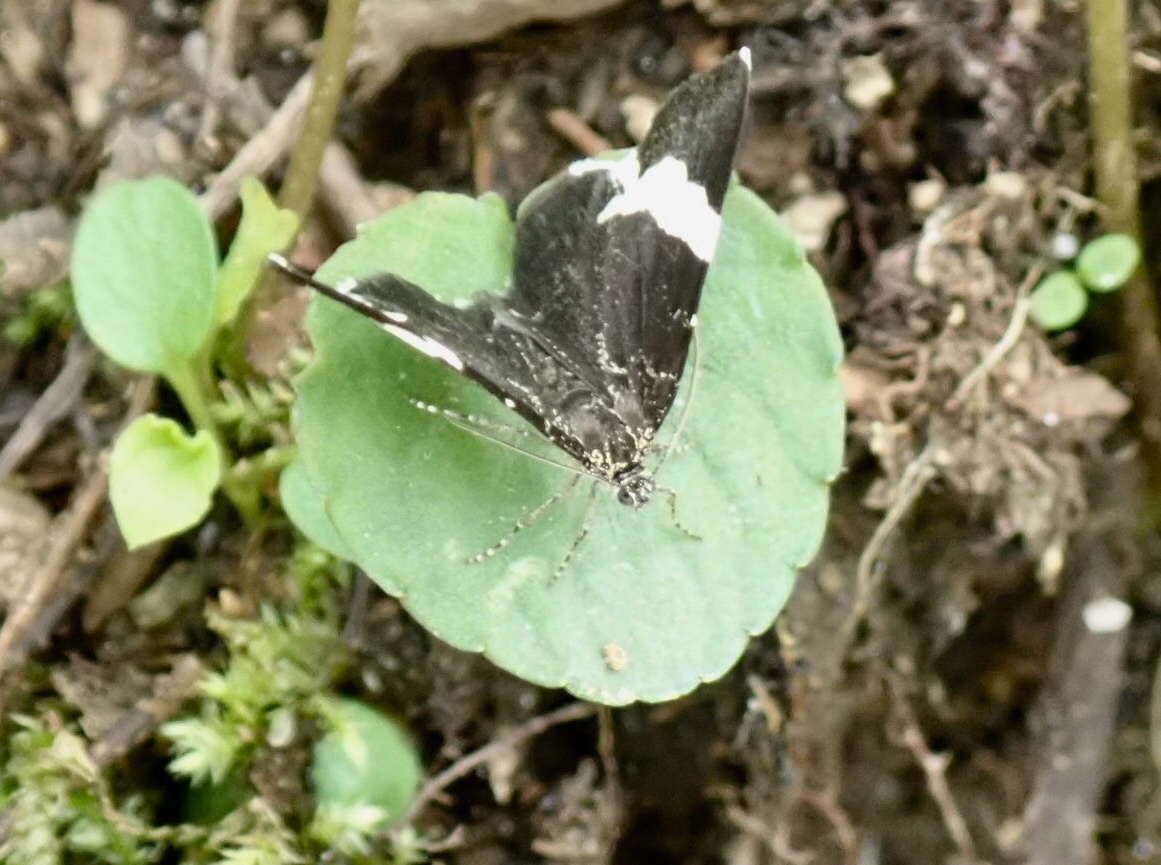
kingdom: Animalia
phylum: Arthropoda
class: Insecta
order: Lepidoptera
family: Geometridae
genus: Trichodezia
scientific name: Trichodezia albovittata
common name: White striped black
